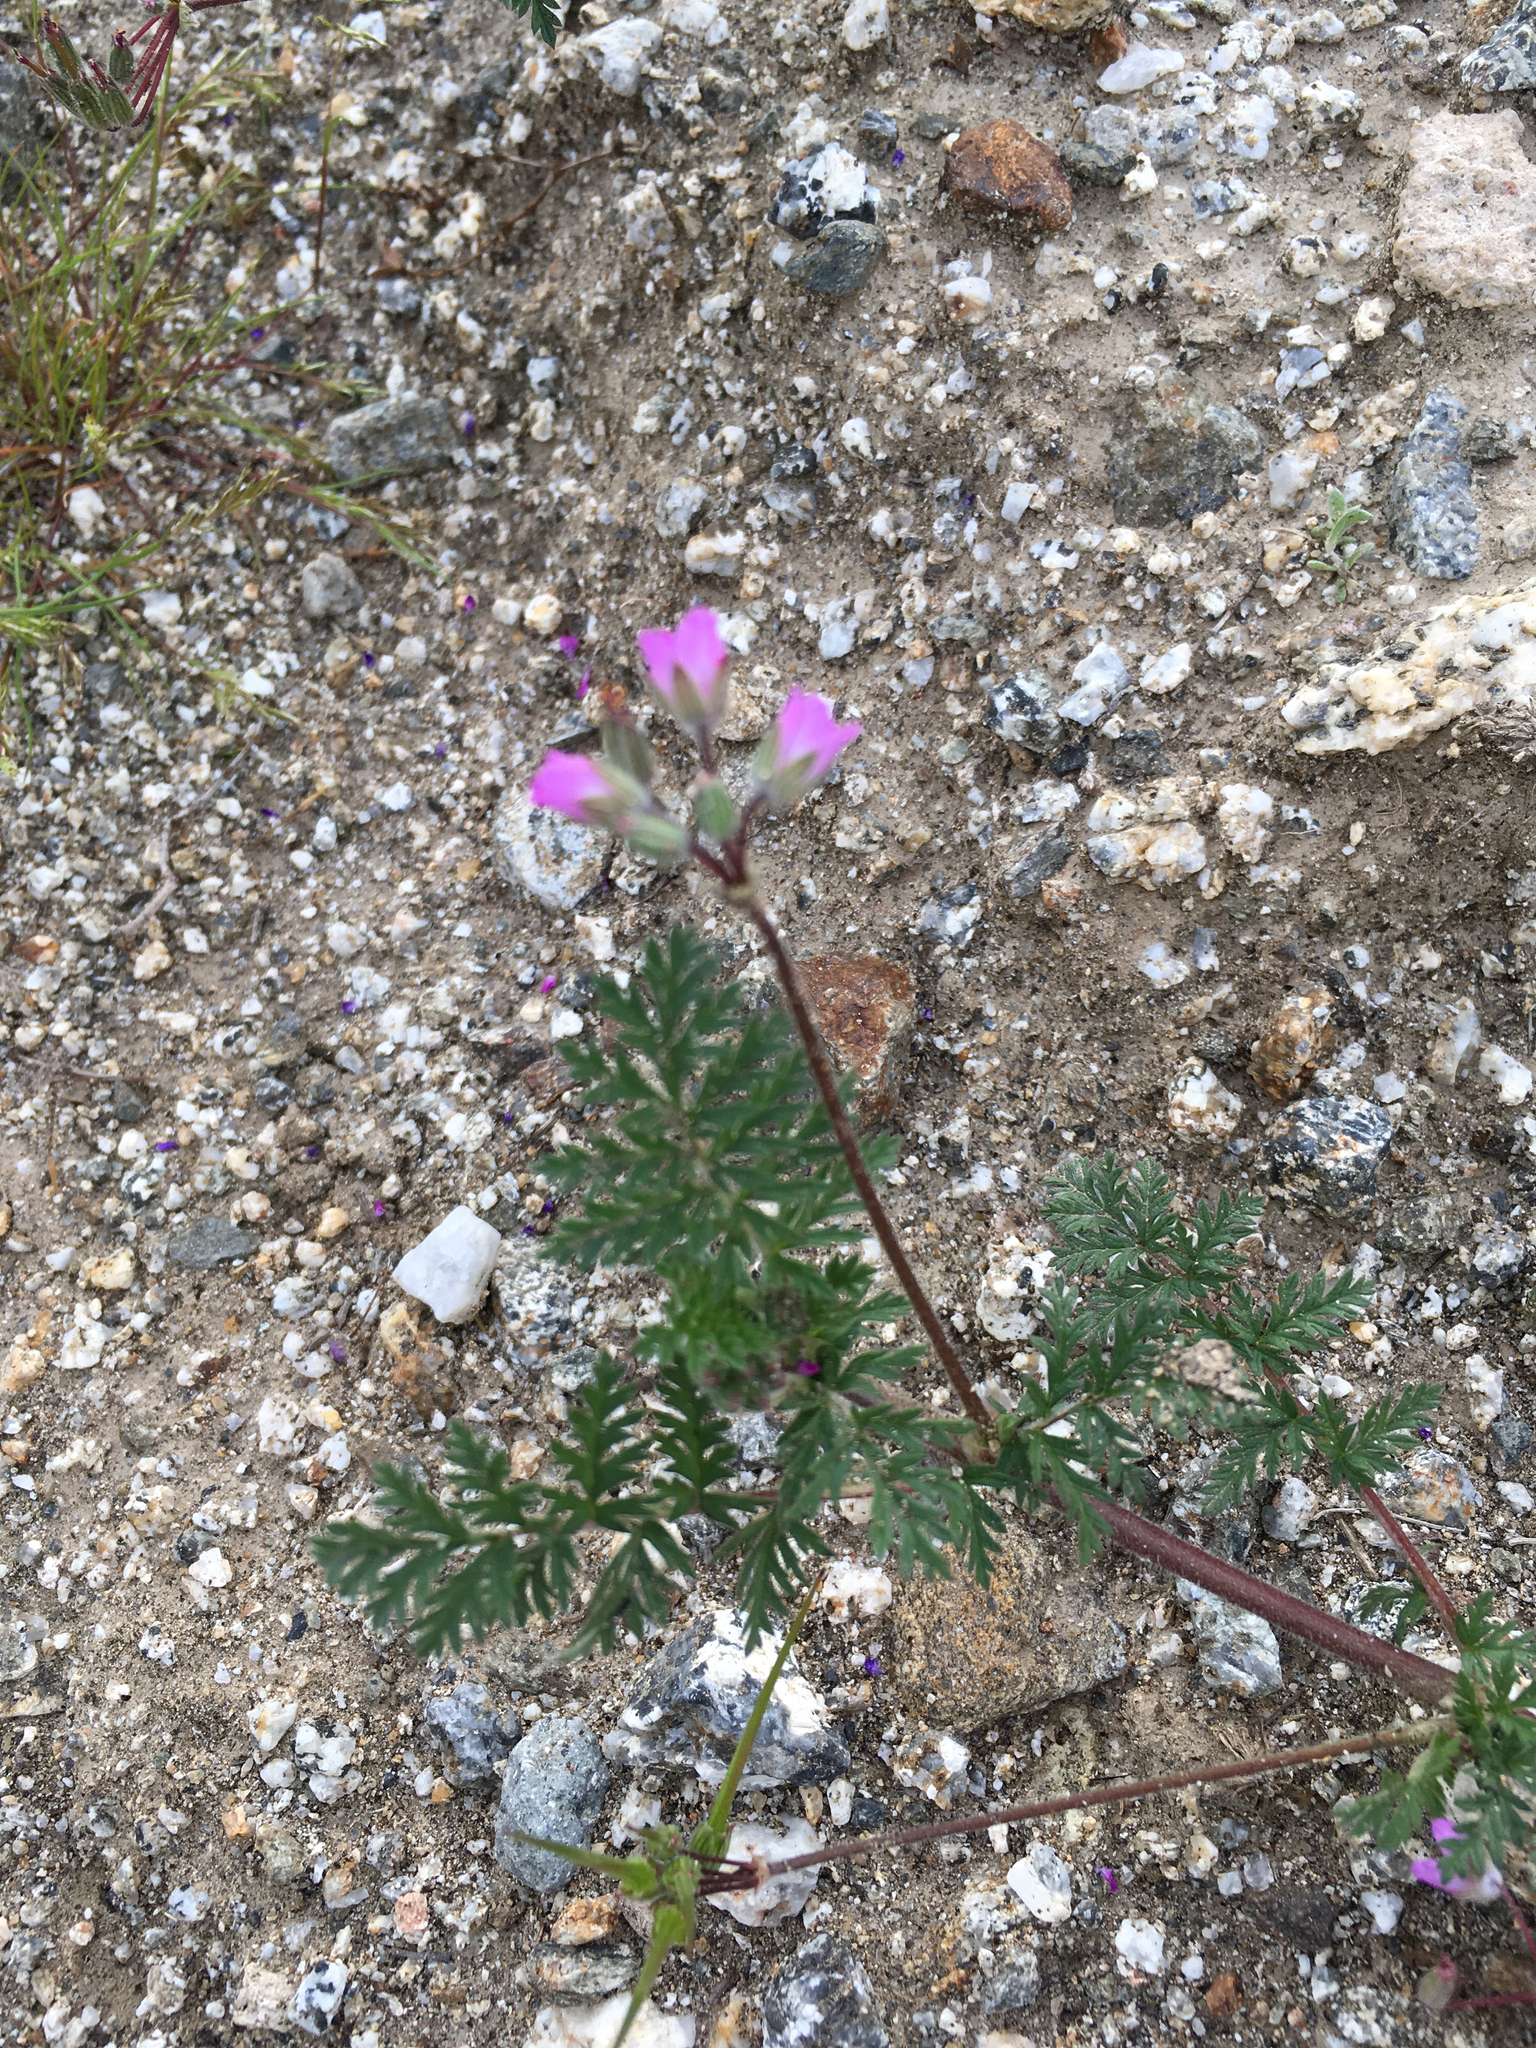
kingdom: Plantae
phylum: Tracheophyta
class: Magnoliopsida
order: Geraniales
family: Geraniaceae
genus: Erodium
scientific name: Erodium cicutarium
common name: Common stork's-bill
